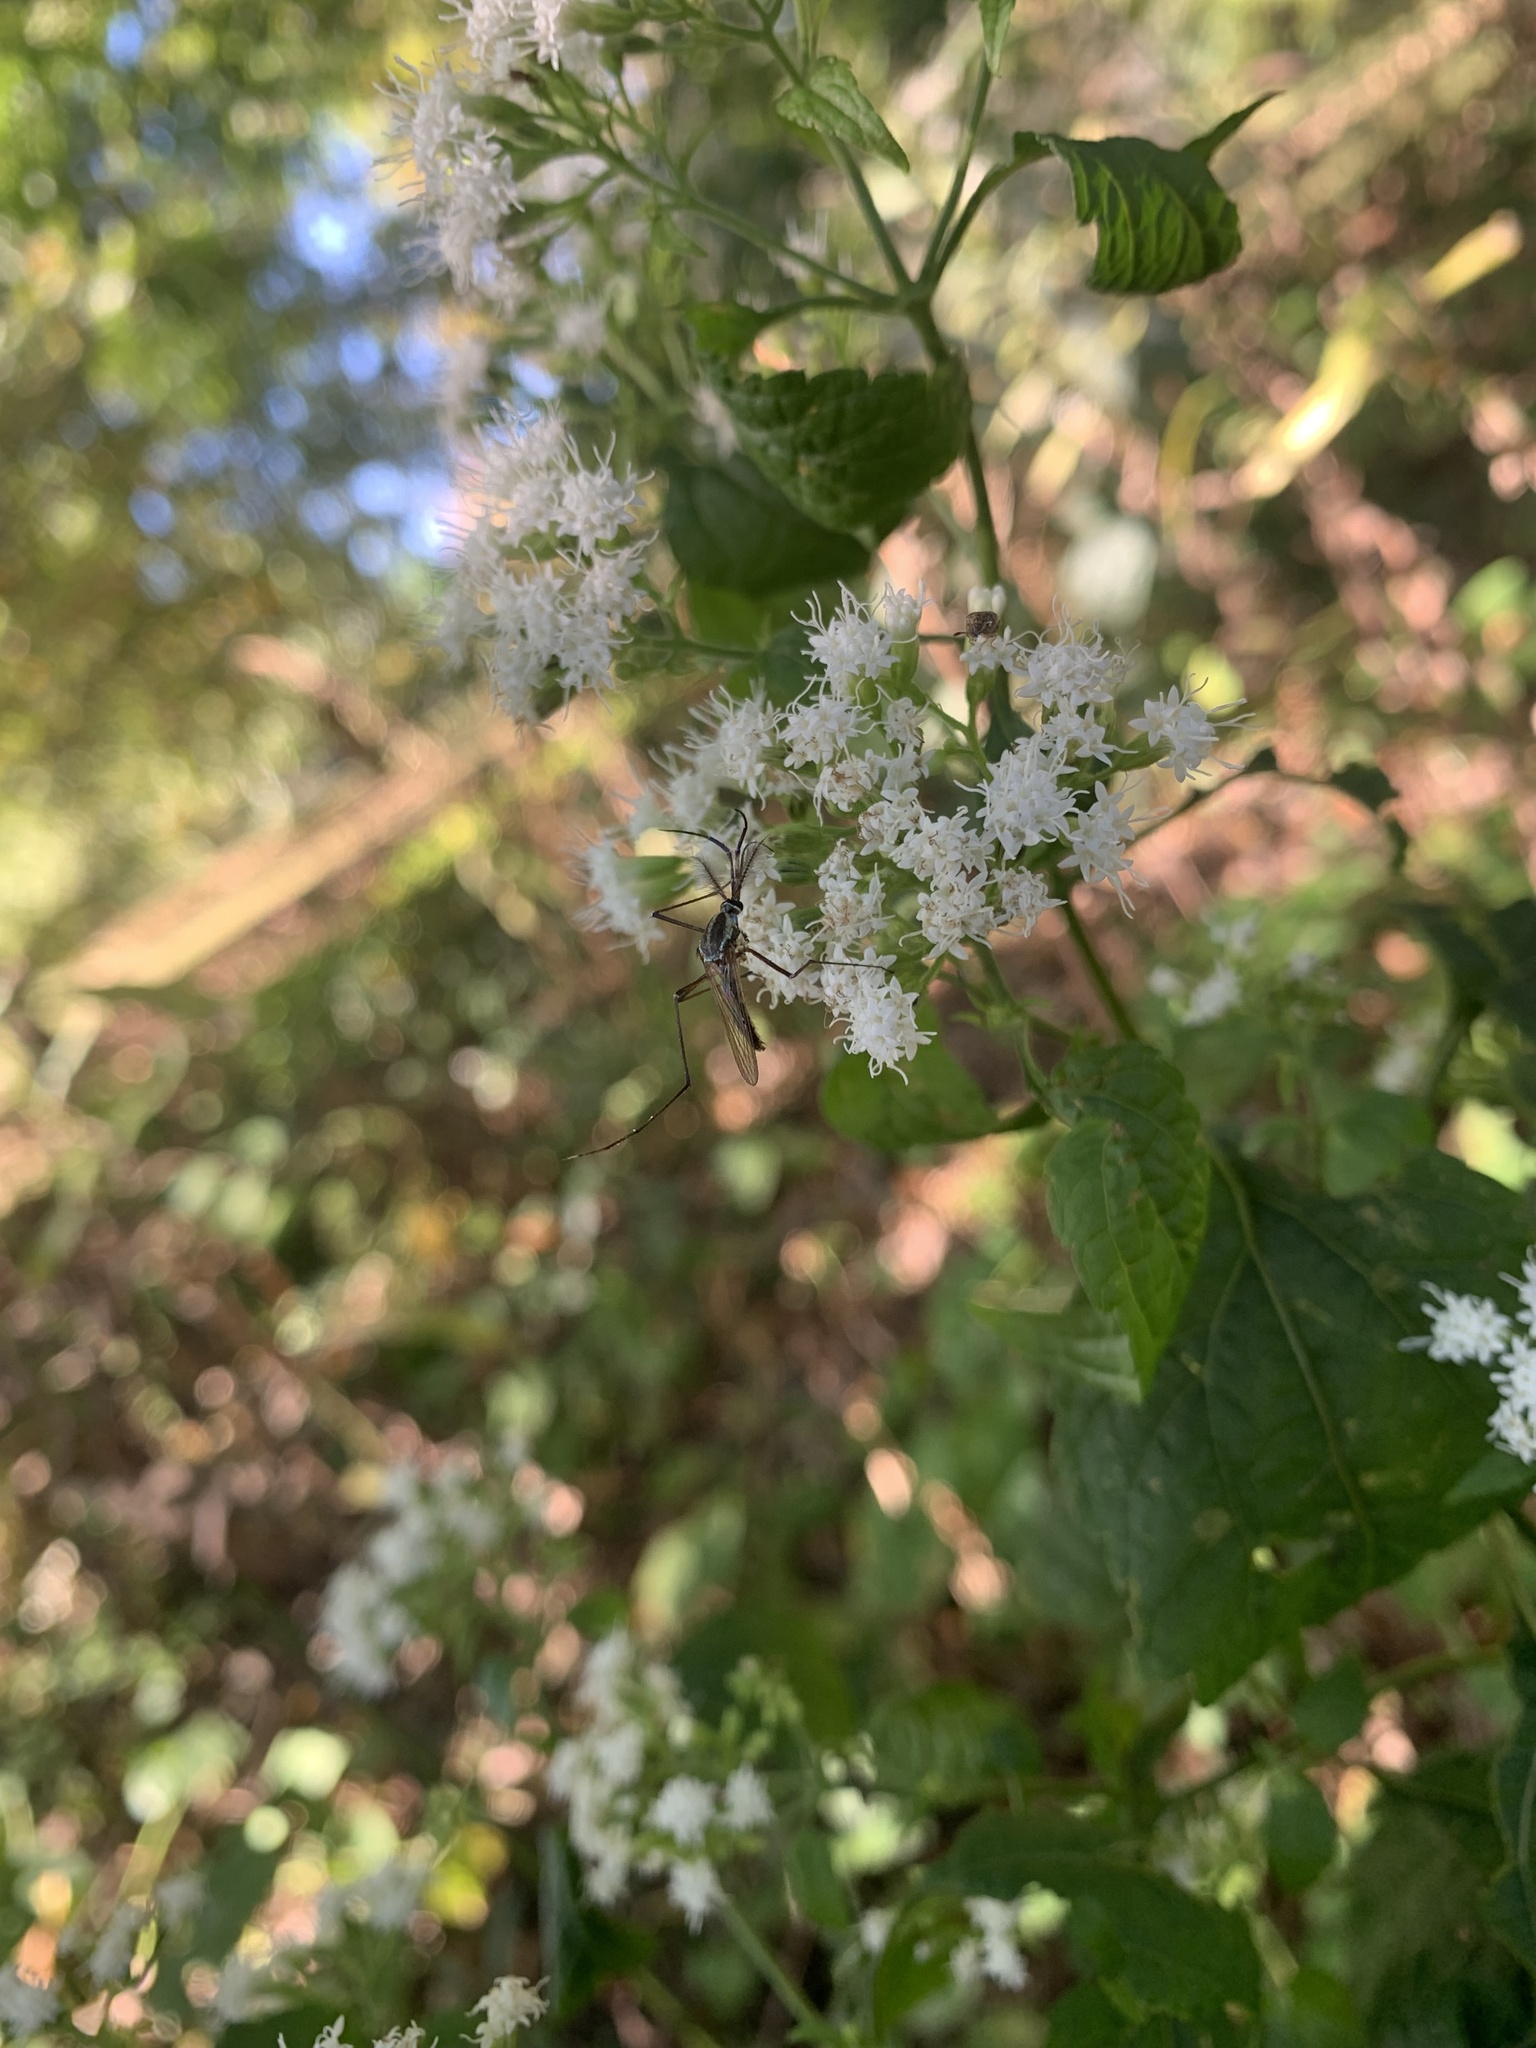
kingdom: Animalia
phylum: Arthropoda
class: Insecta
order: Diptera
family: Culicidae
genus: Toxorhynchites
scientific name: Toxorhynchites rutilus
